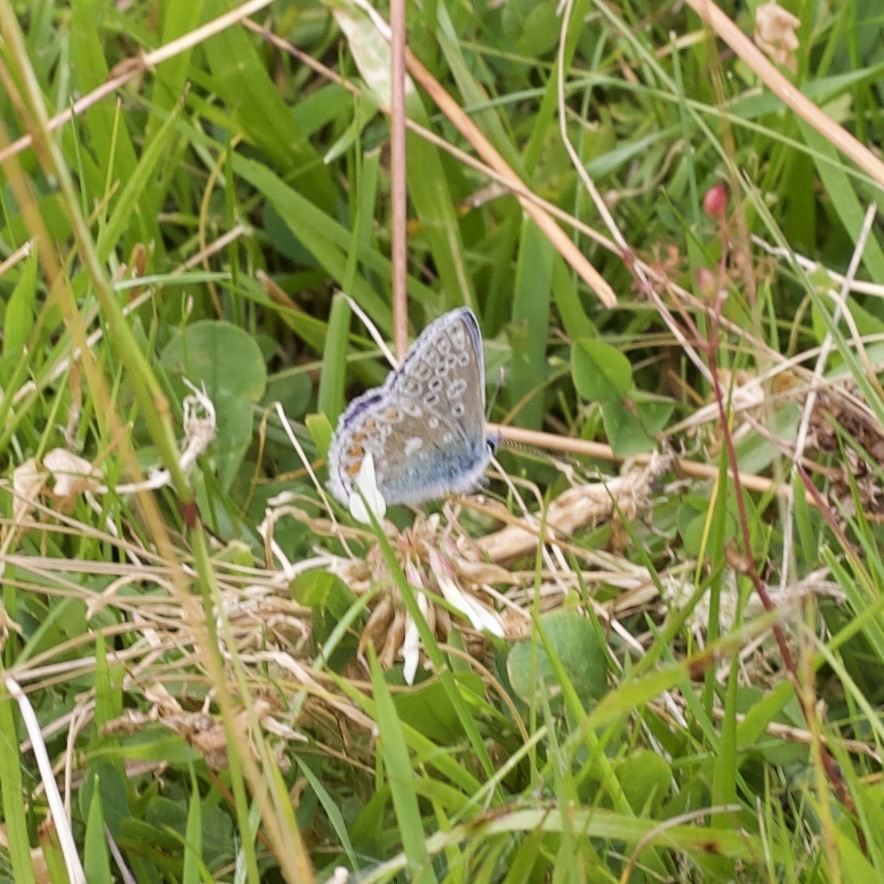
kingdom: Animalia
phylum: Arthropoda
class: Insecta
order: Lepidoptera
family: Lycaenidae
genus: Polyommatus
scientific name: Polyommatus icarus
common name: Common blue
